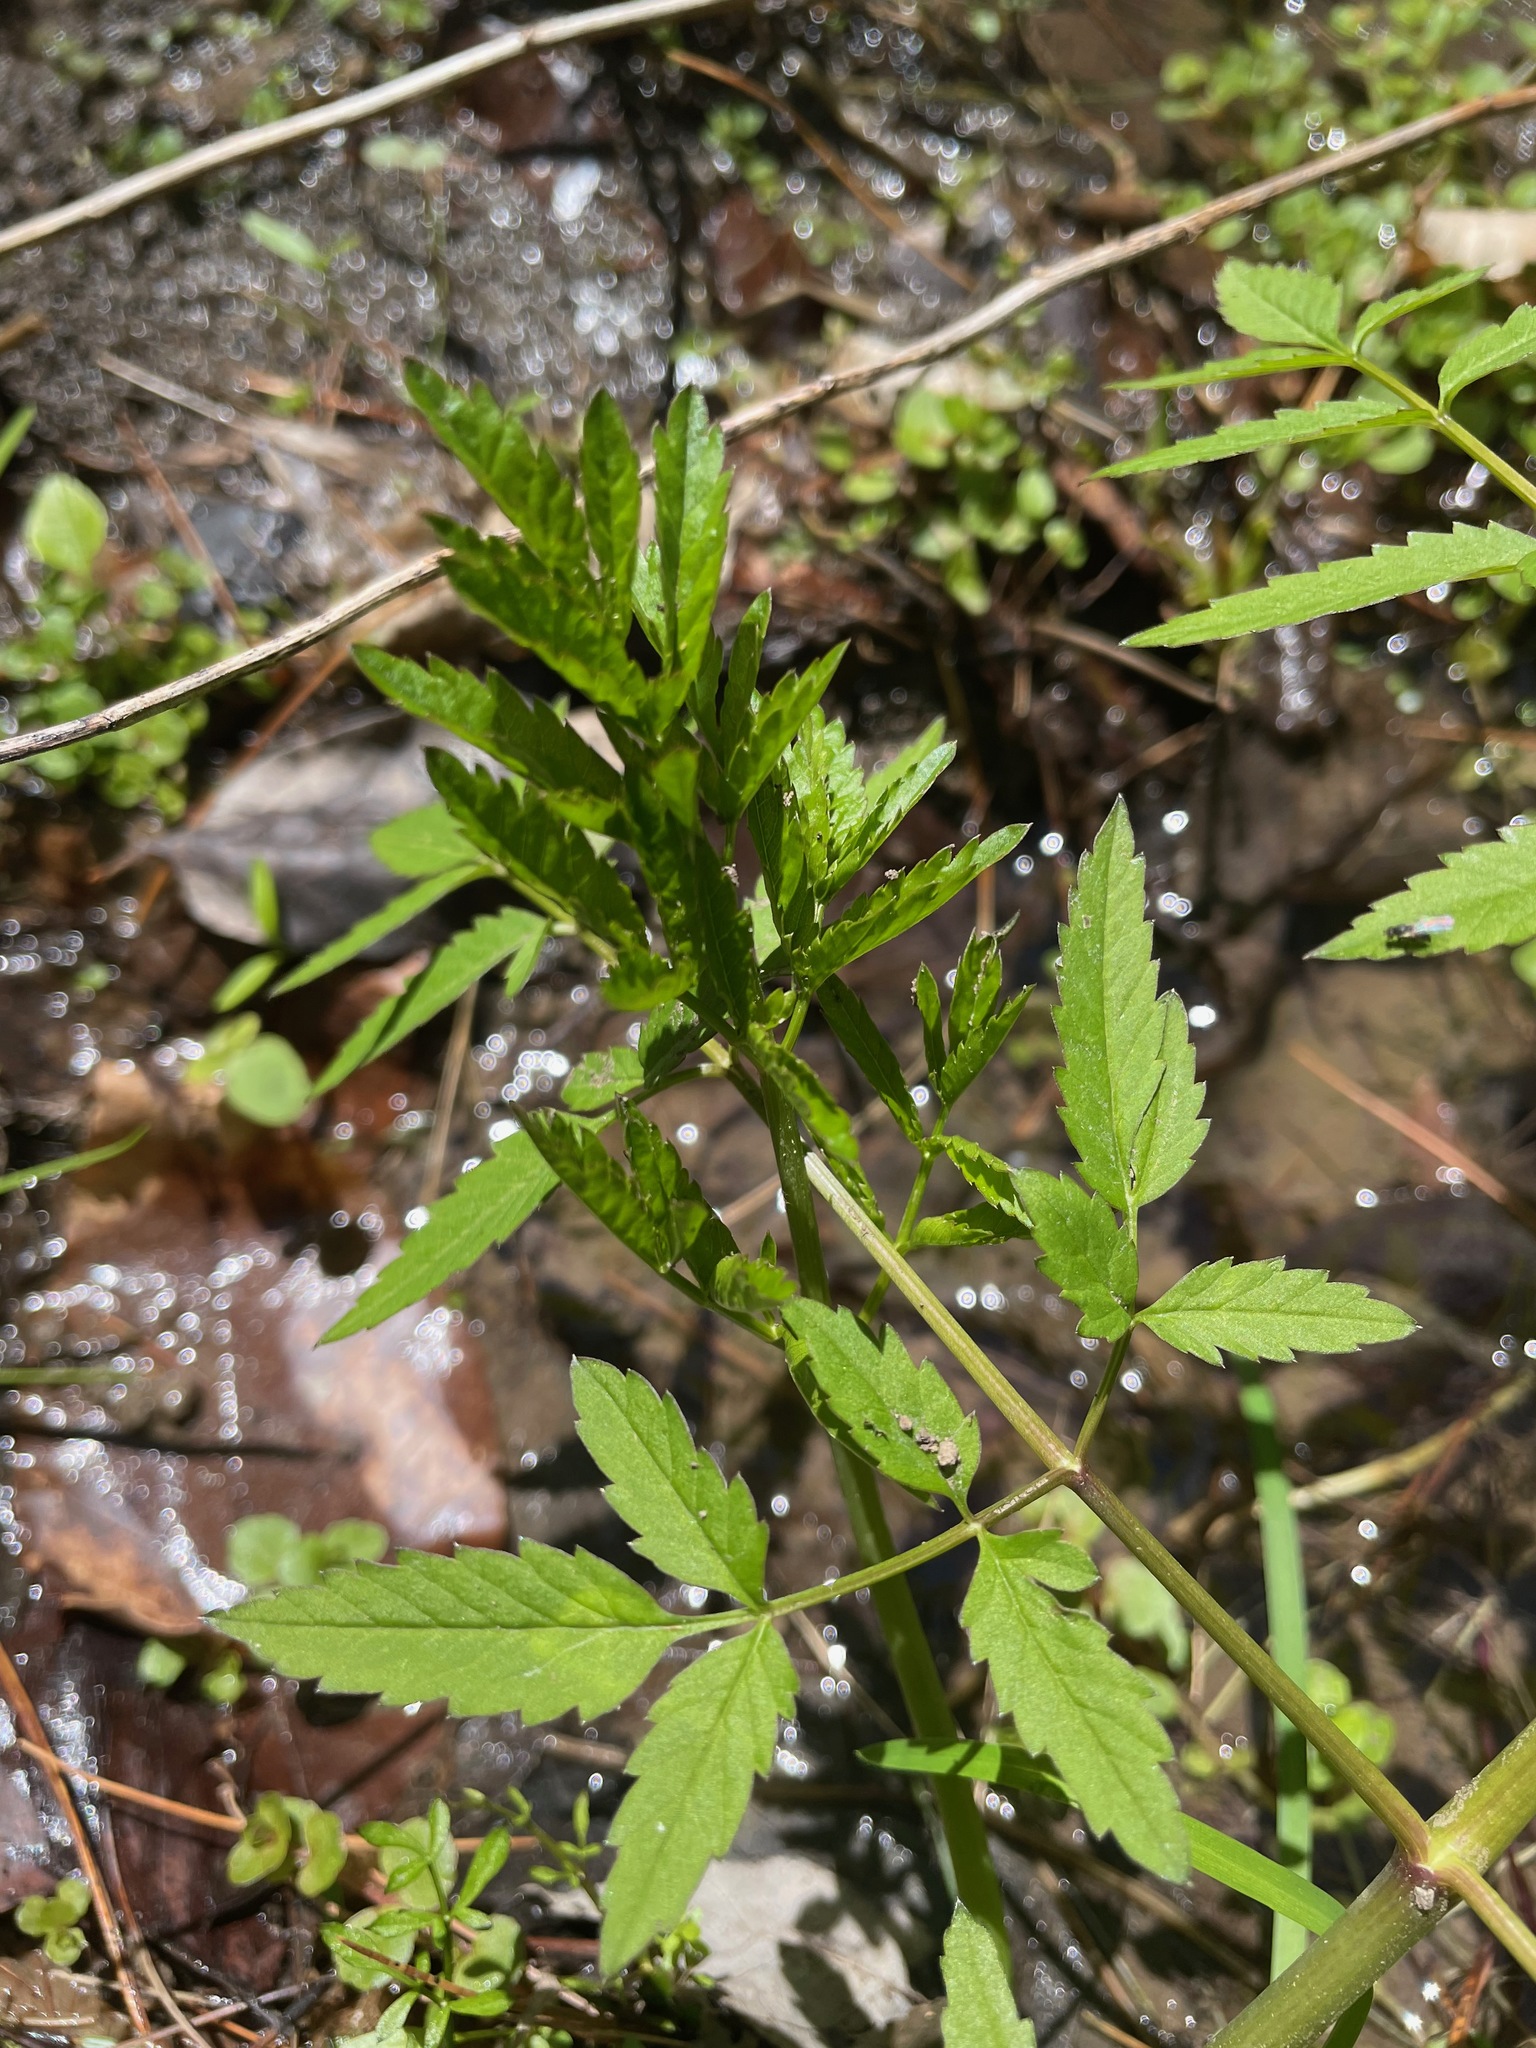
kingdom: Plantae
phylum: Tracheophyta
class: Magnoliopsida
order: Apiales
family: Apiaceae
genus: Cicuta
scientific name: Cicuta maculata
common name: Spotted cowbane
